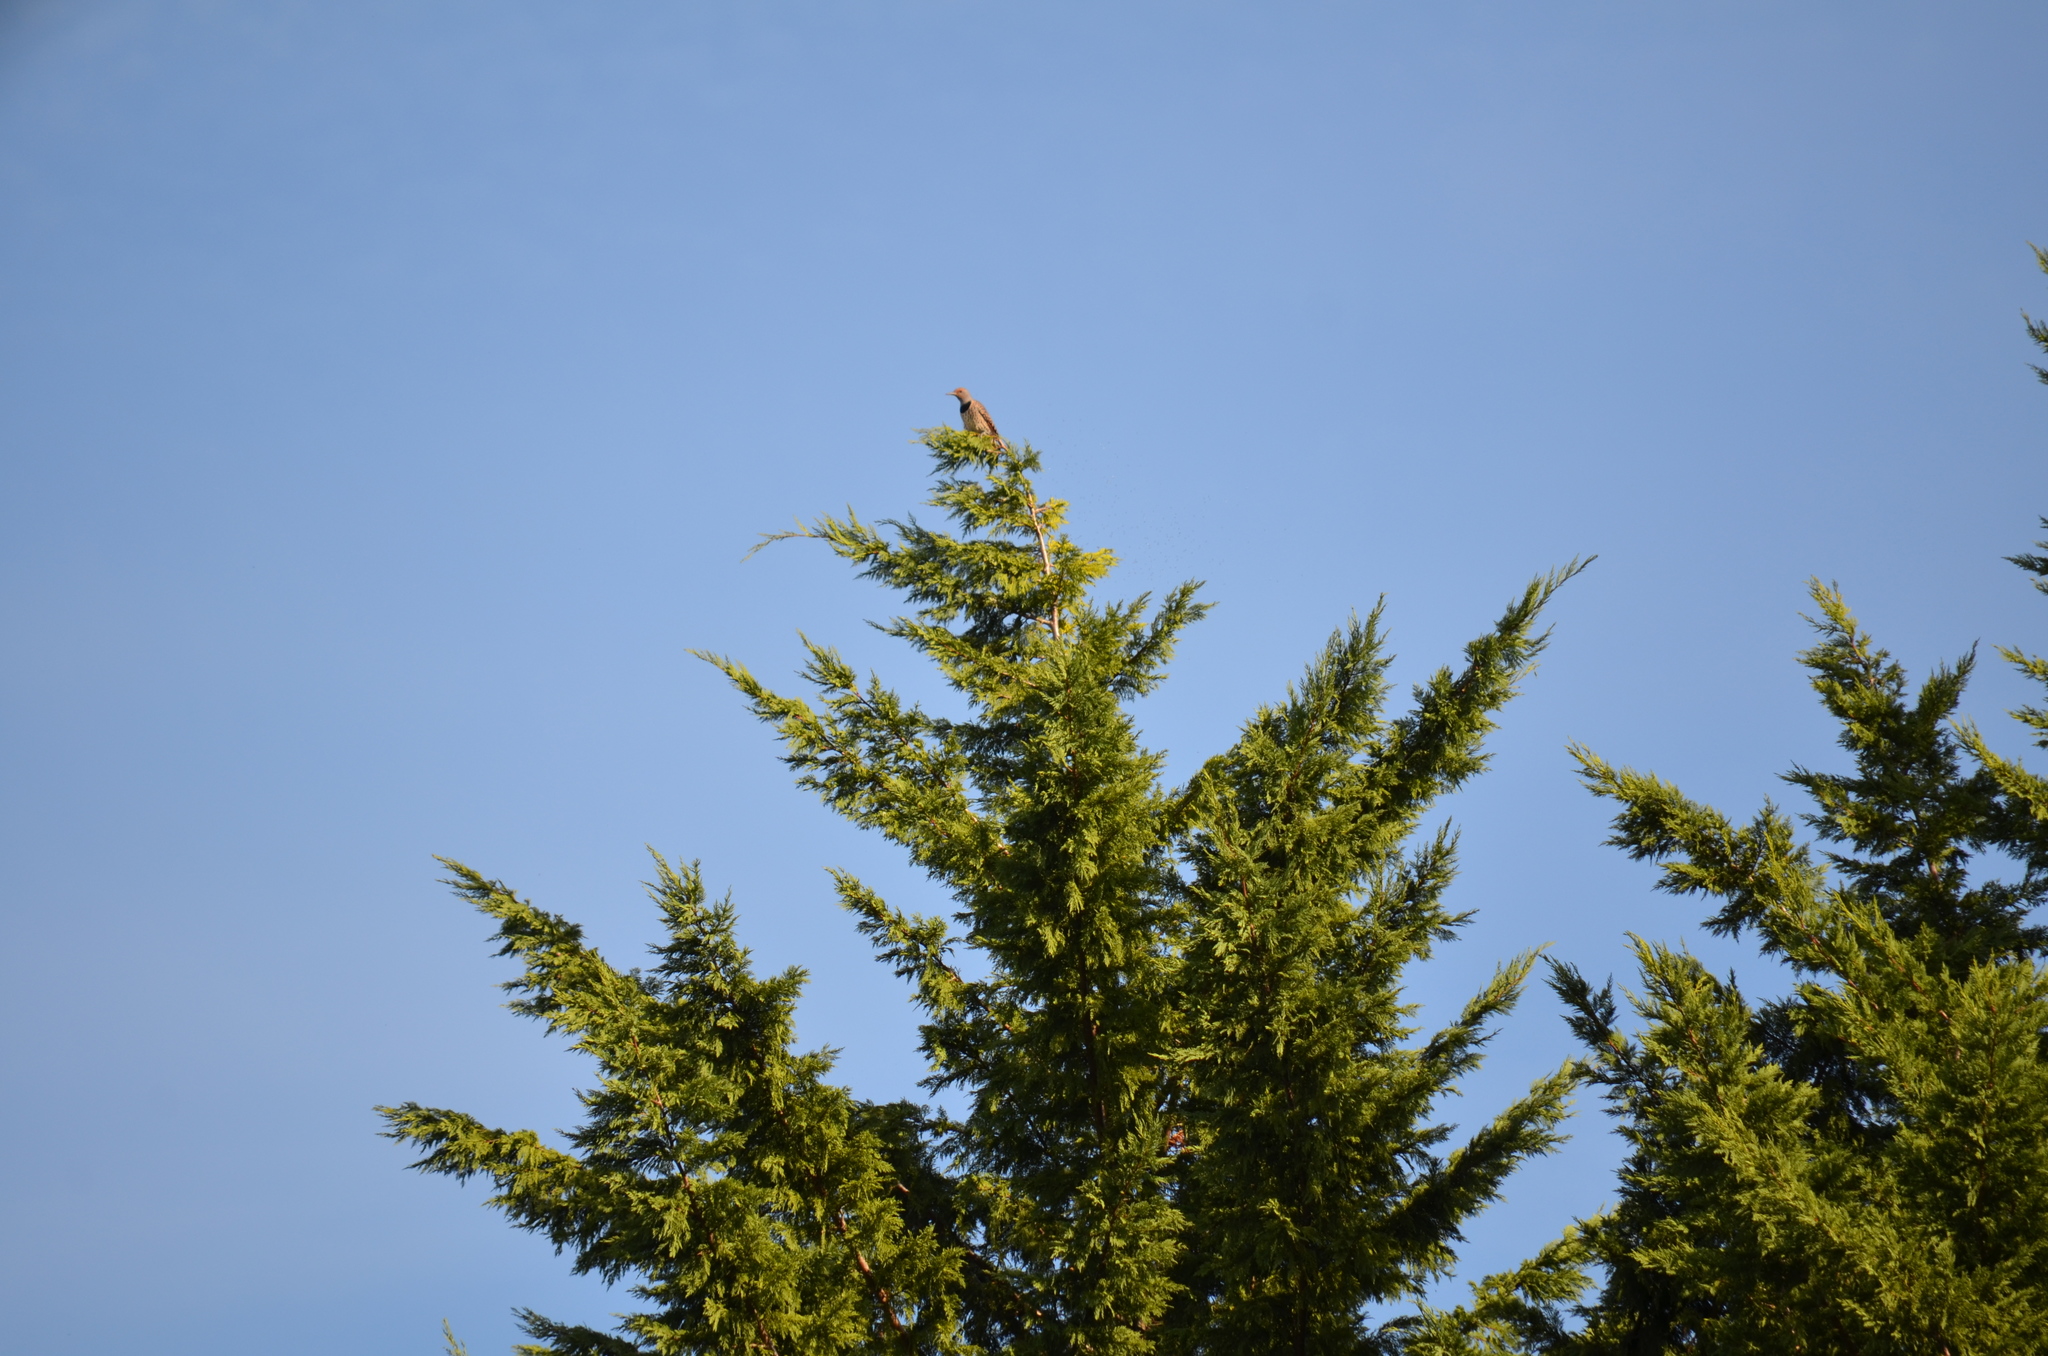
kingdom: Animalia
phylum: Chordata
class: Aves
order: Piciformes
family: Picidae
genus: Colaptes
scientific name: Colaptes auratus
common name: Northern flicker
